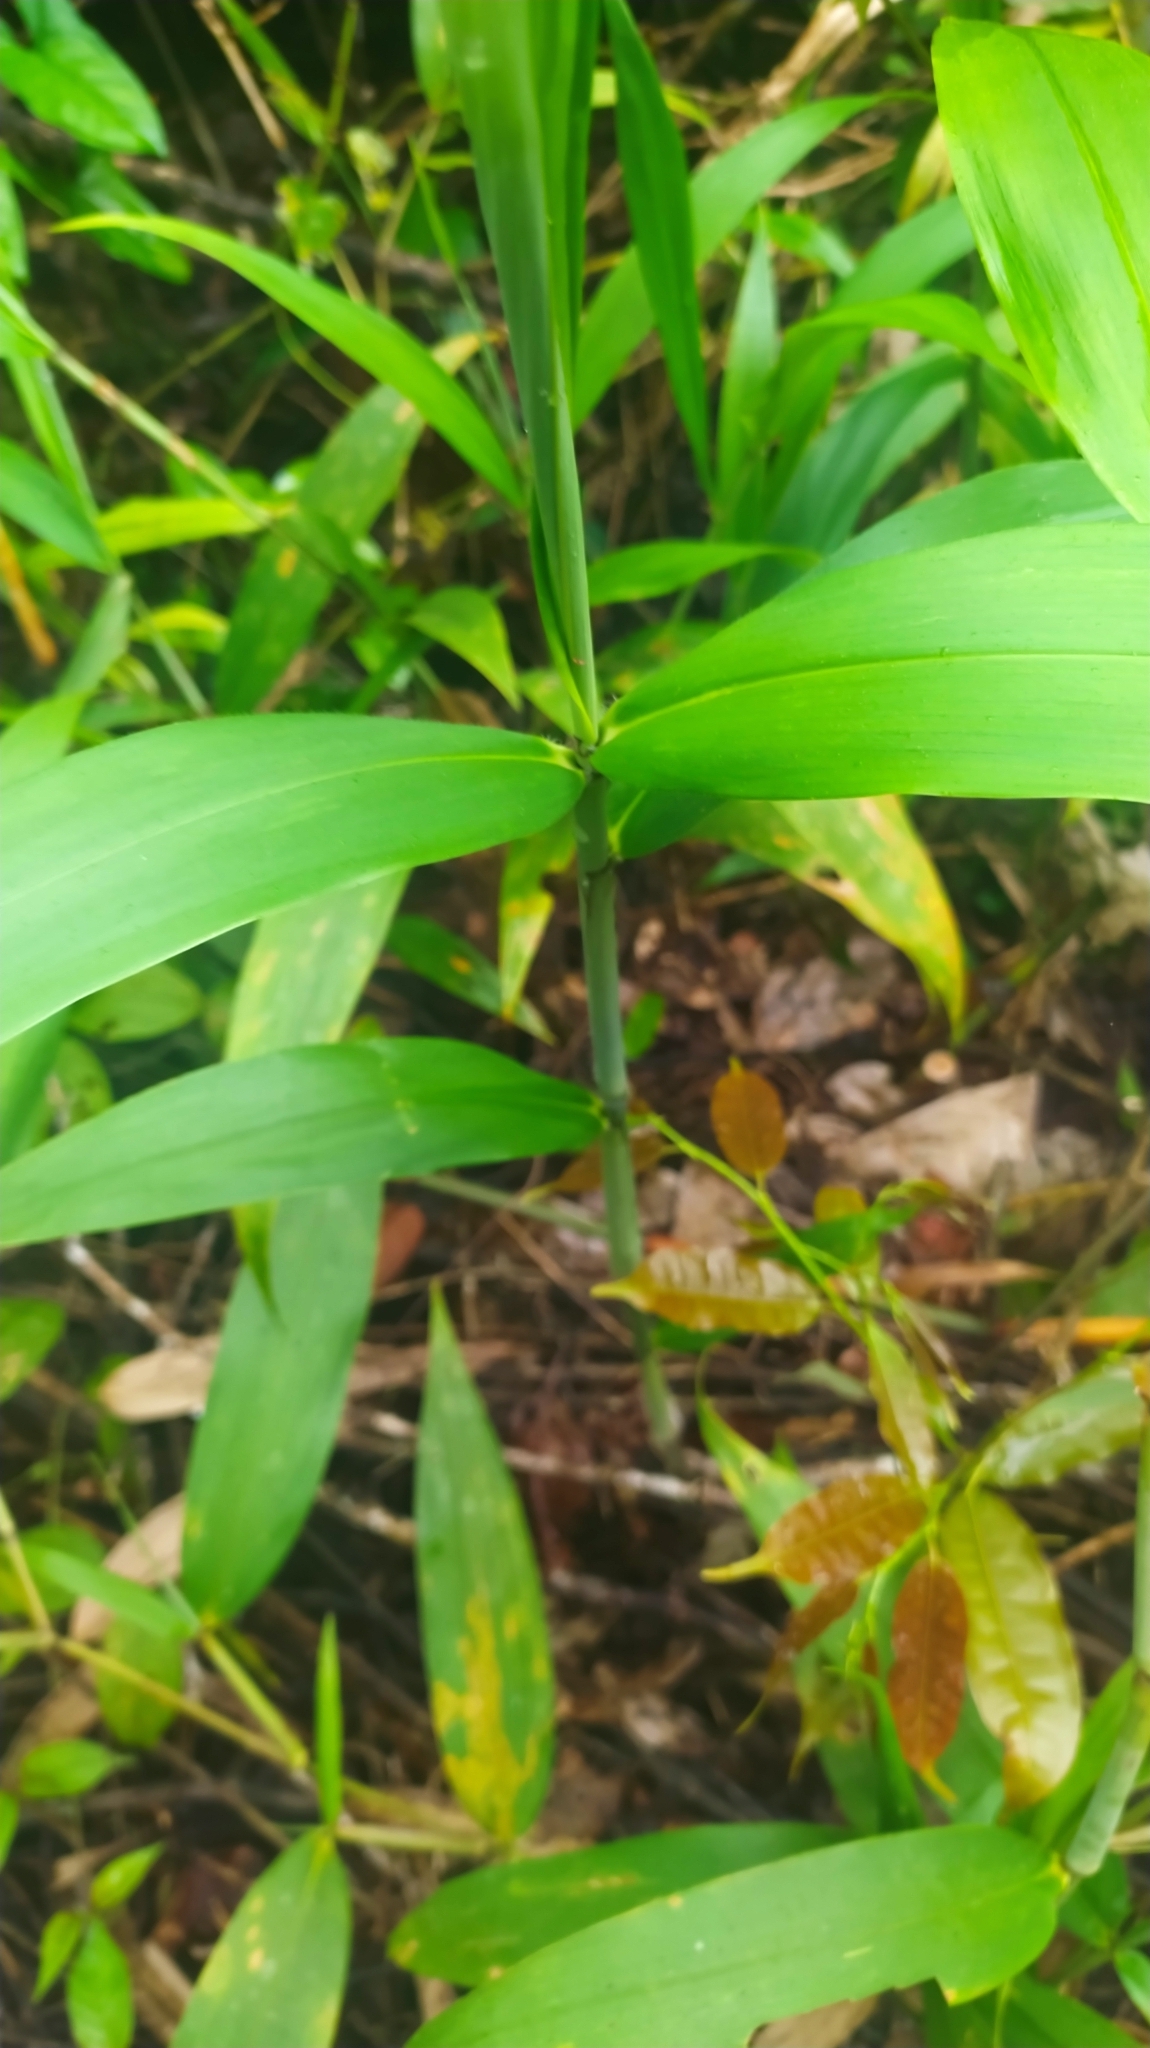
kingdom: Plantae
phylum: Tracheophyta
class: Liliopsida
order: Poales
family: Poaceae
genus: Ichnanthus
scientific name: Ichnanthus breviscrobs
